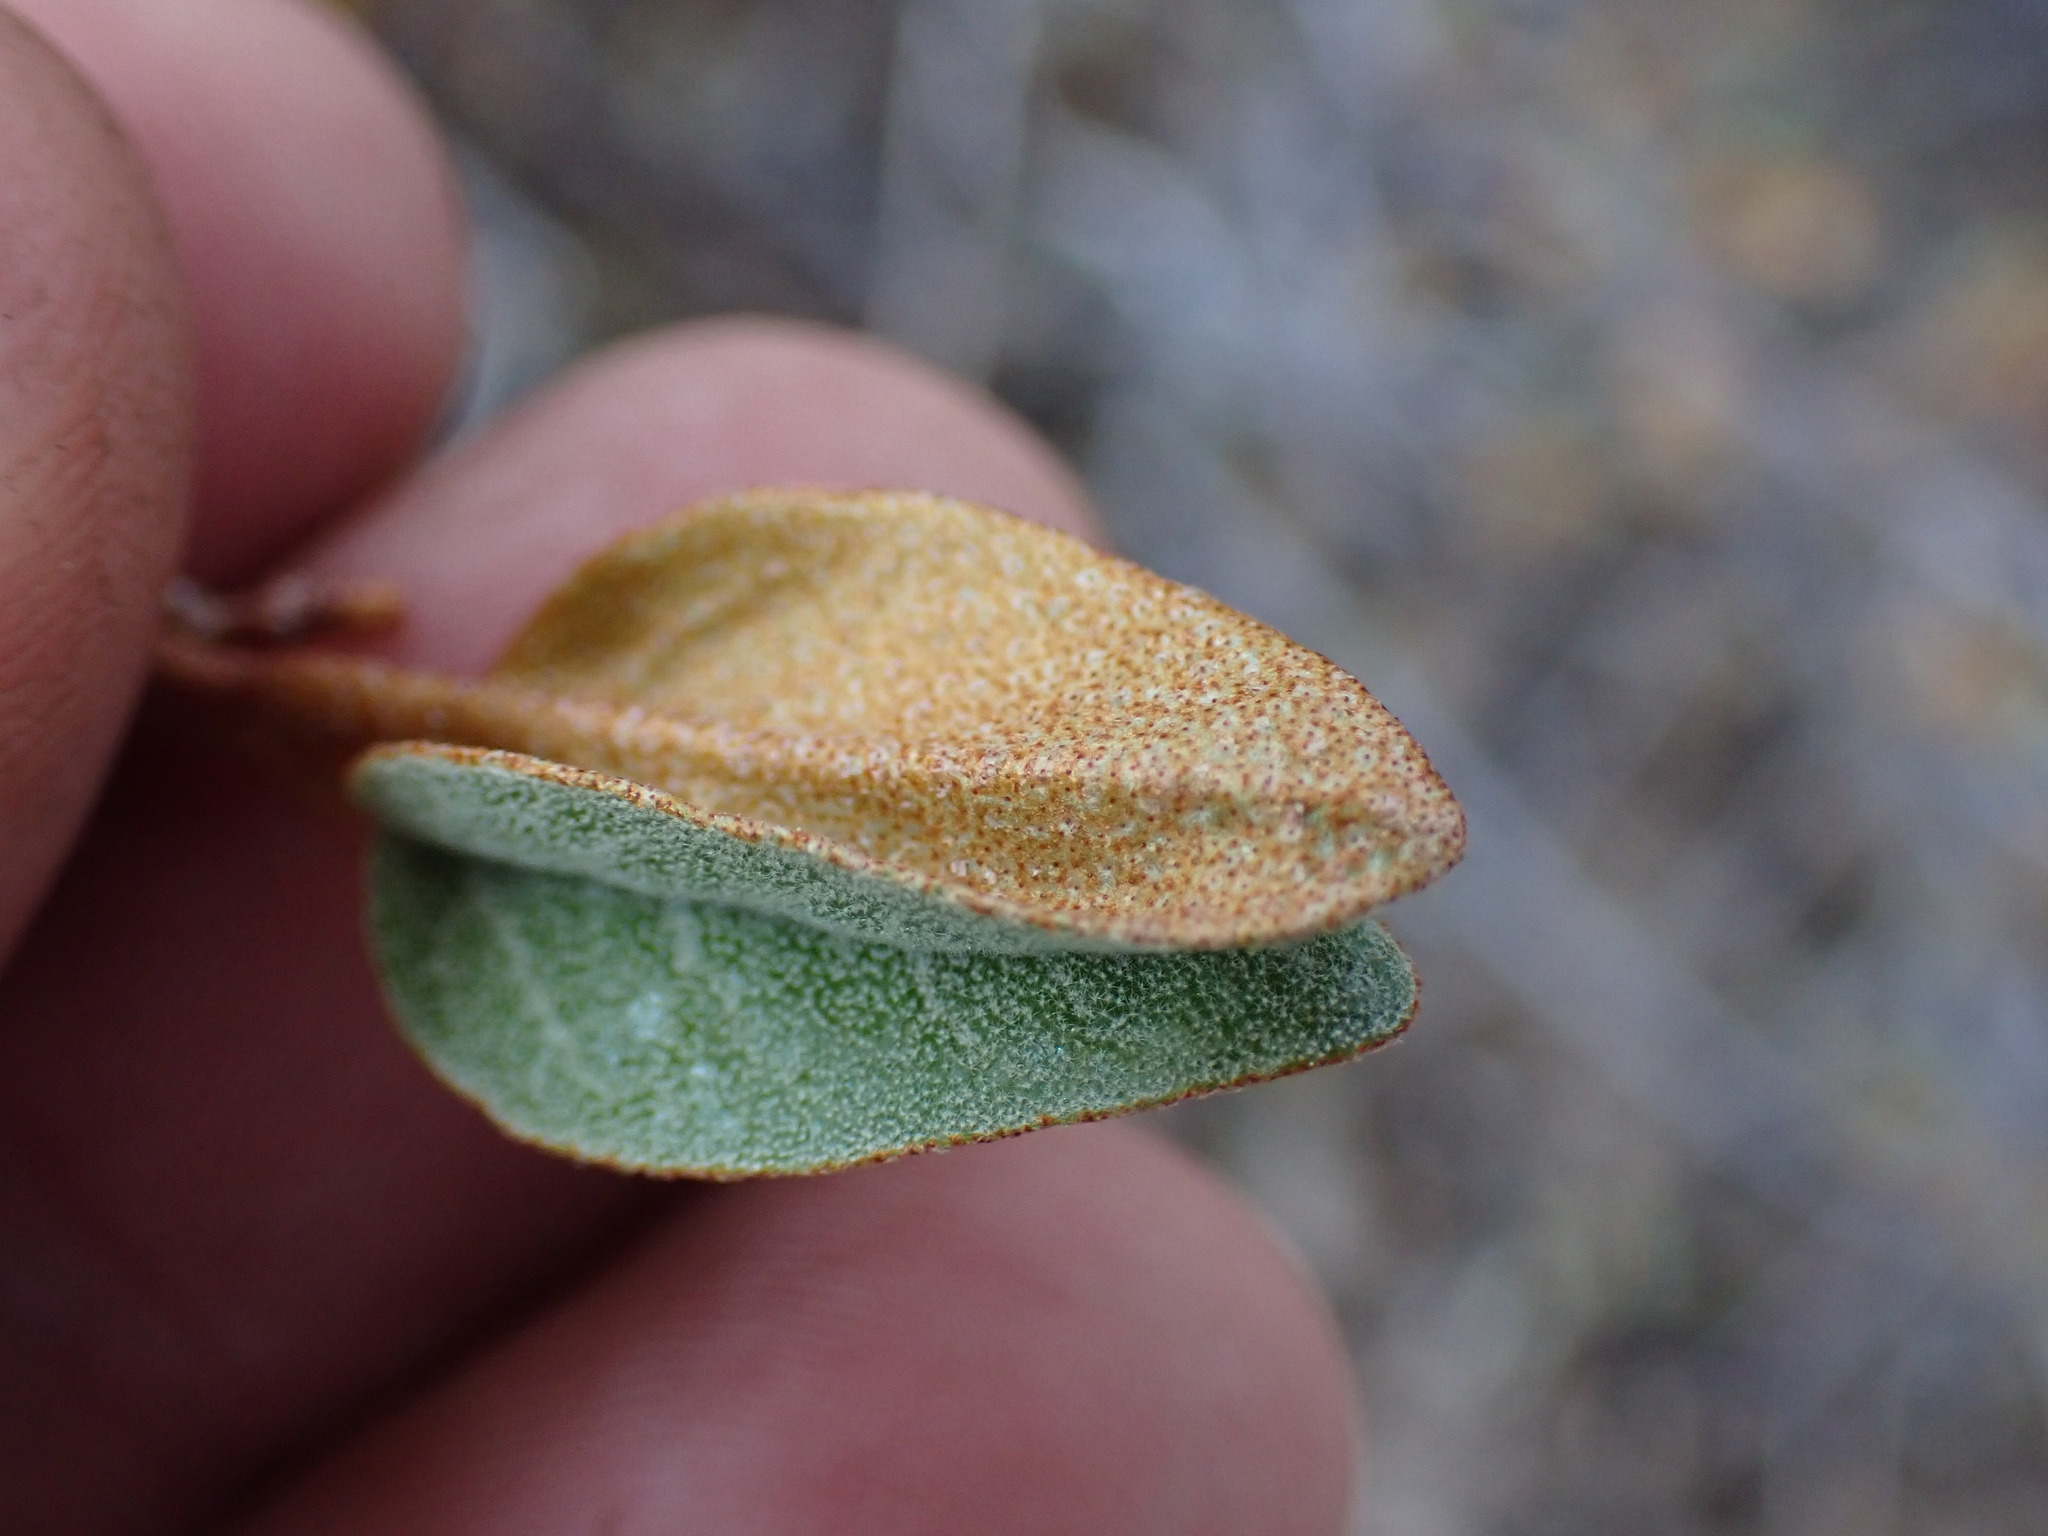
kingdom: Plantae
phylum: Tracheophyta
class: Magnoliopsida
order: Rosales
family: Elaeagnaceae
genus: Shepherdia
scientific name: Shepherdia canadensis
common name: Soapberry
